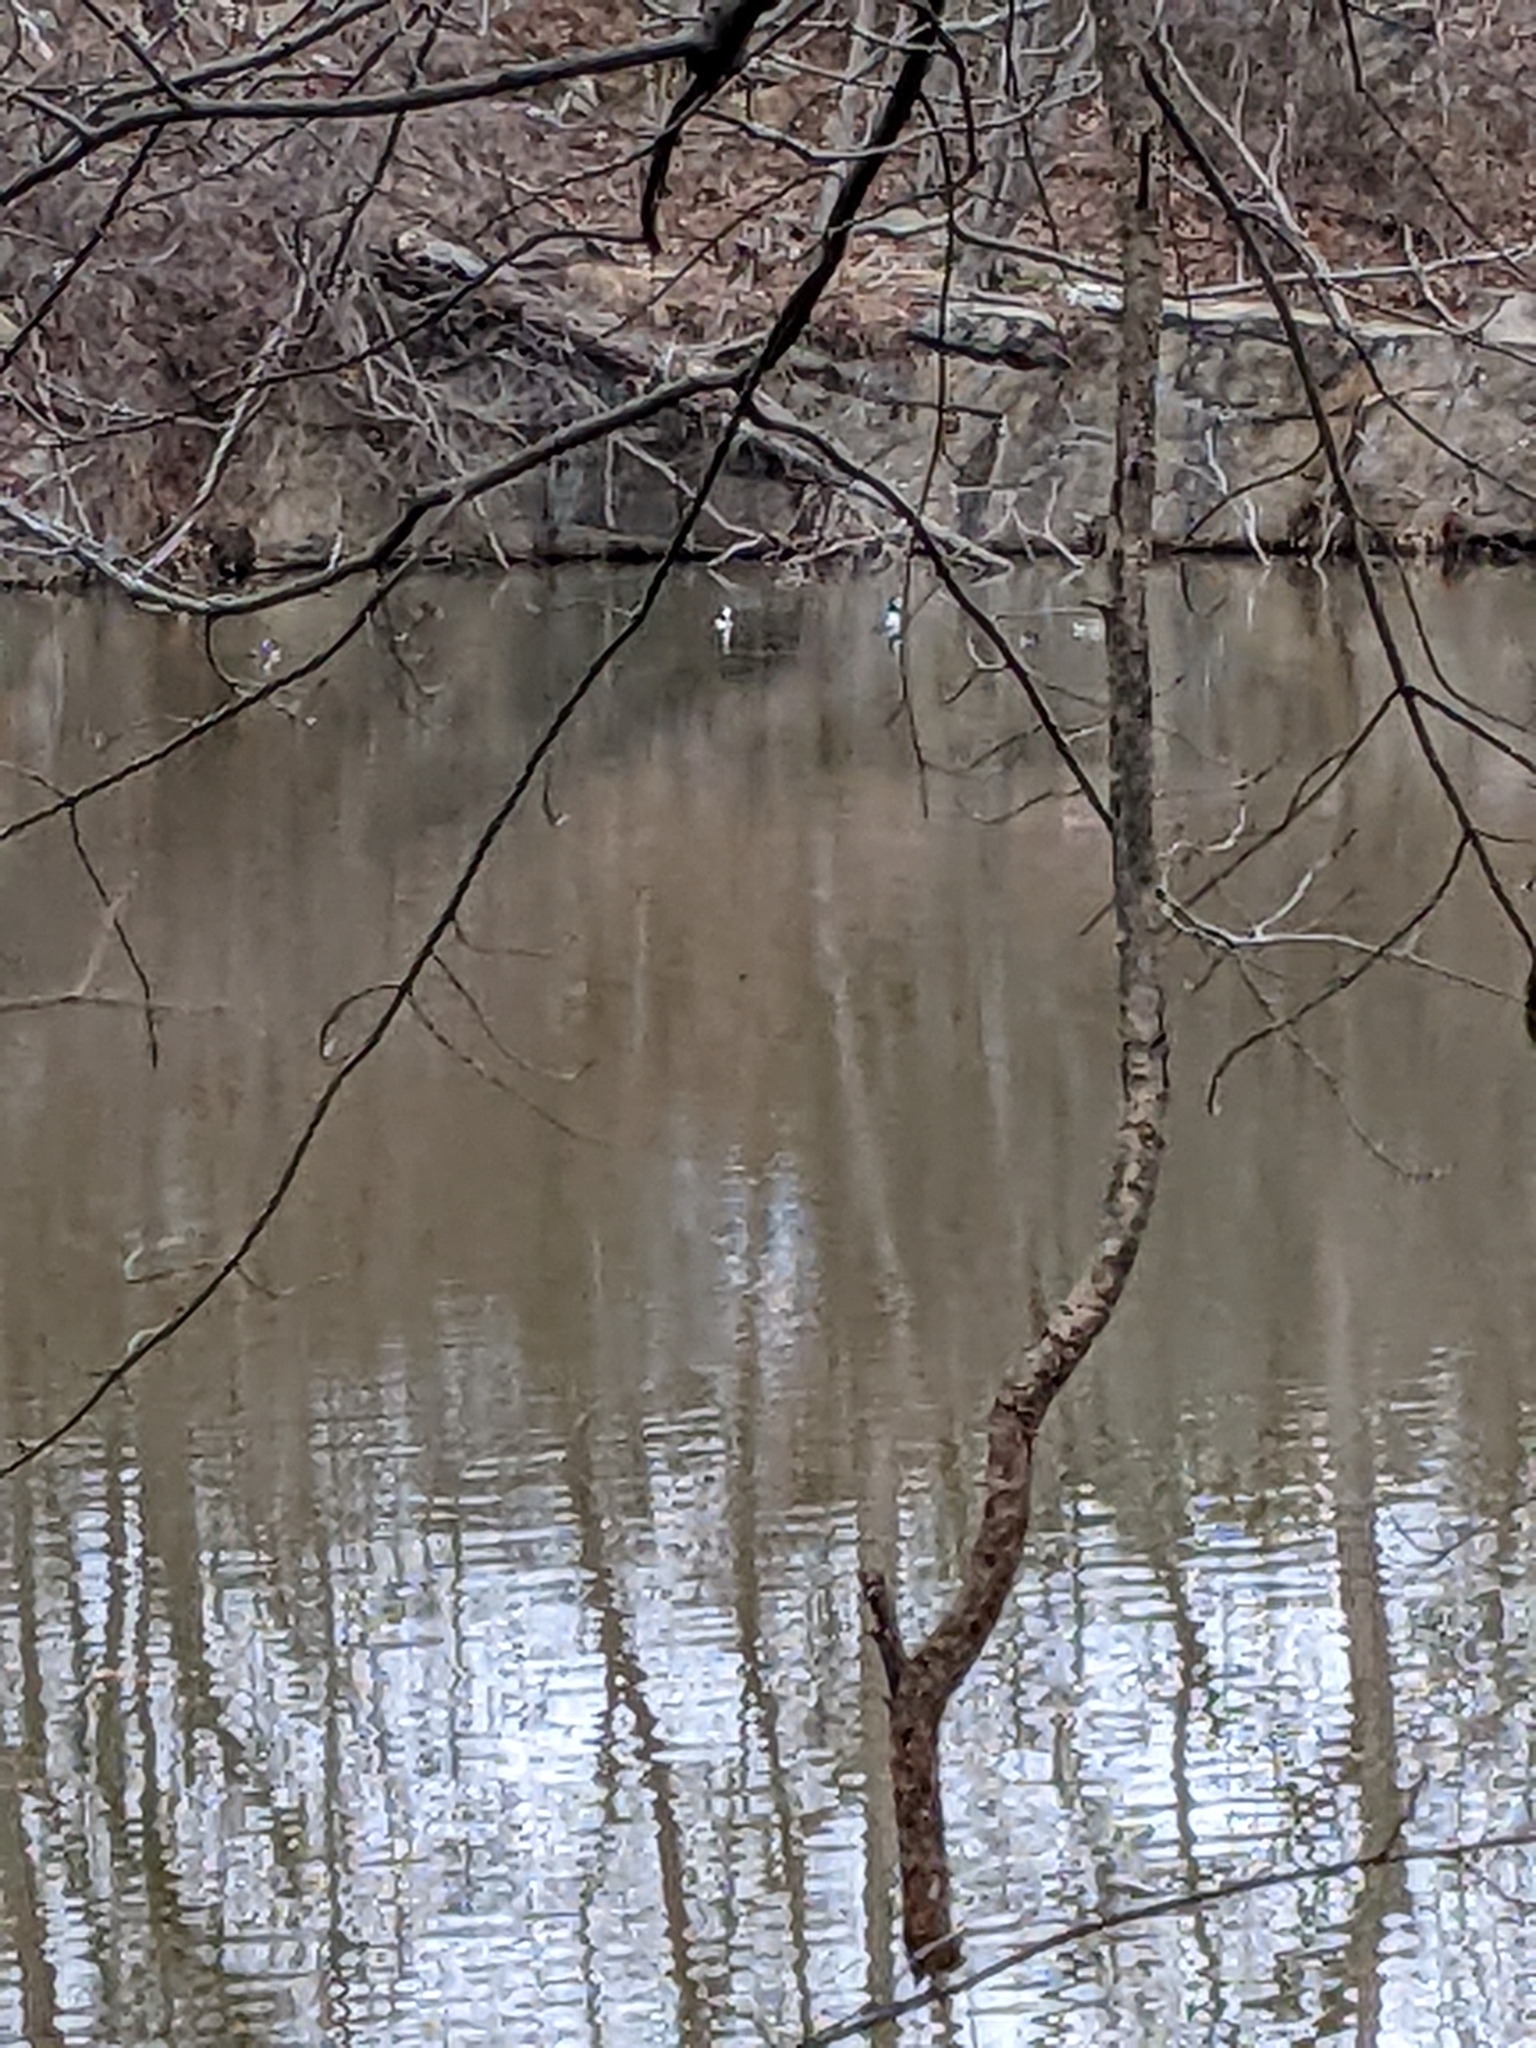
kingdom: Animalia
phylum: Chordata
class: Aves
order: Anseriformes
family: Anatidae
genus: Lophodytes
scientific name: Lophodytes cucullatus
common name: Hooded merganser
